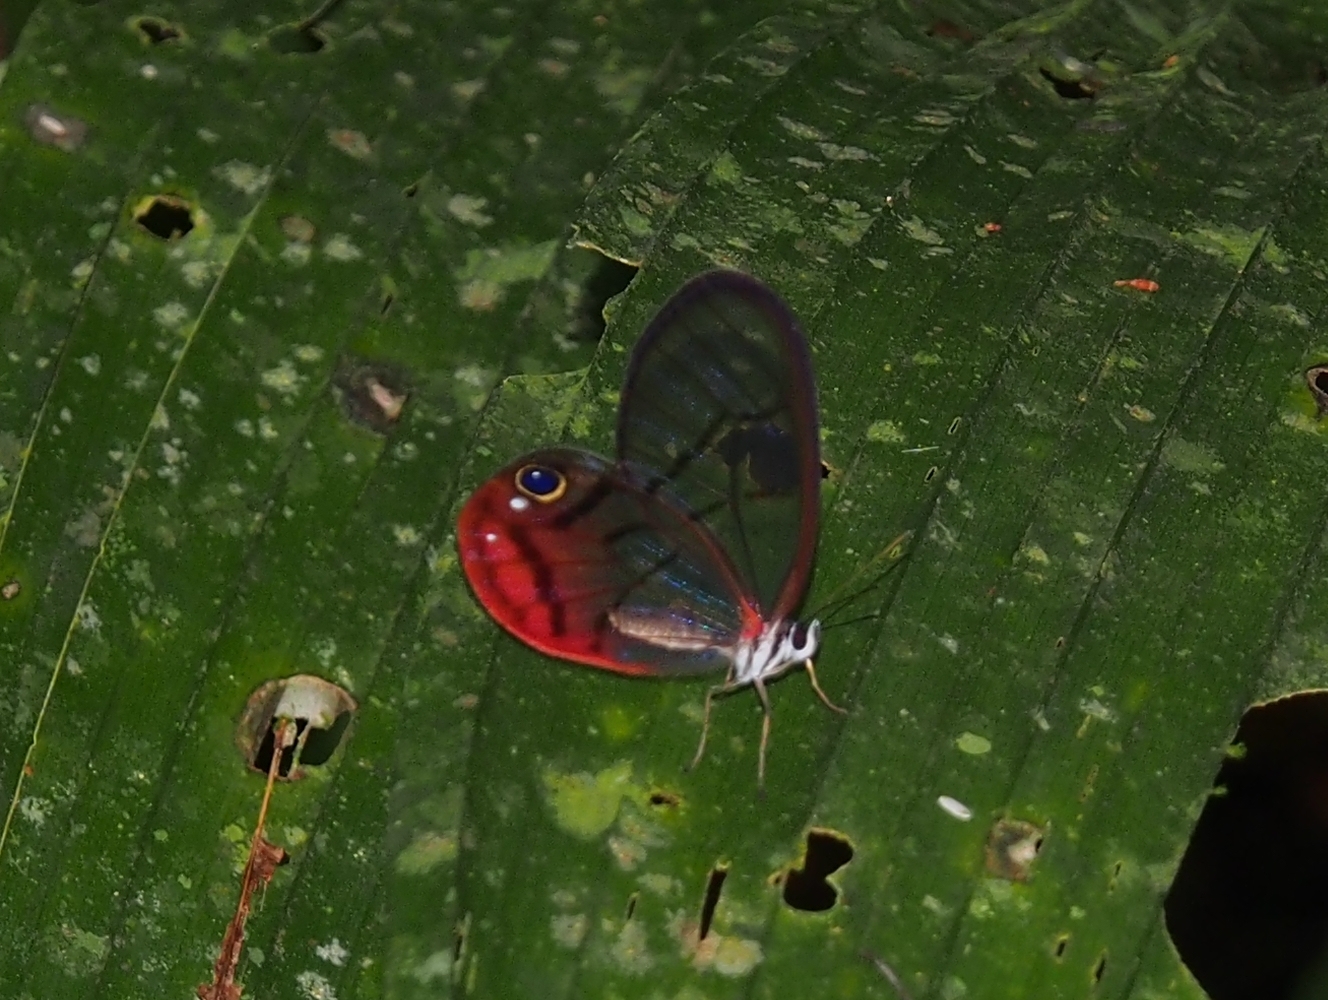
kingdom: Animalia
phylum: Arthropoda
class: Insecta
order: Lepidoptera
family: Nymphalidae
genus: Cithaerias
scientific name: Cithaerias pireta
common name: Rusted clearwing-satyr
